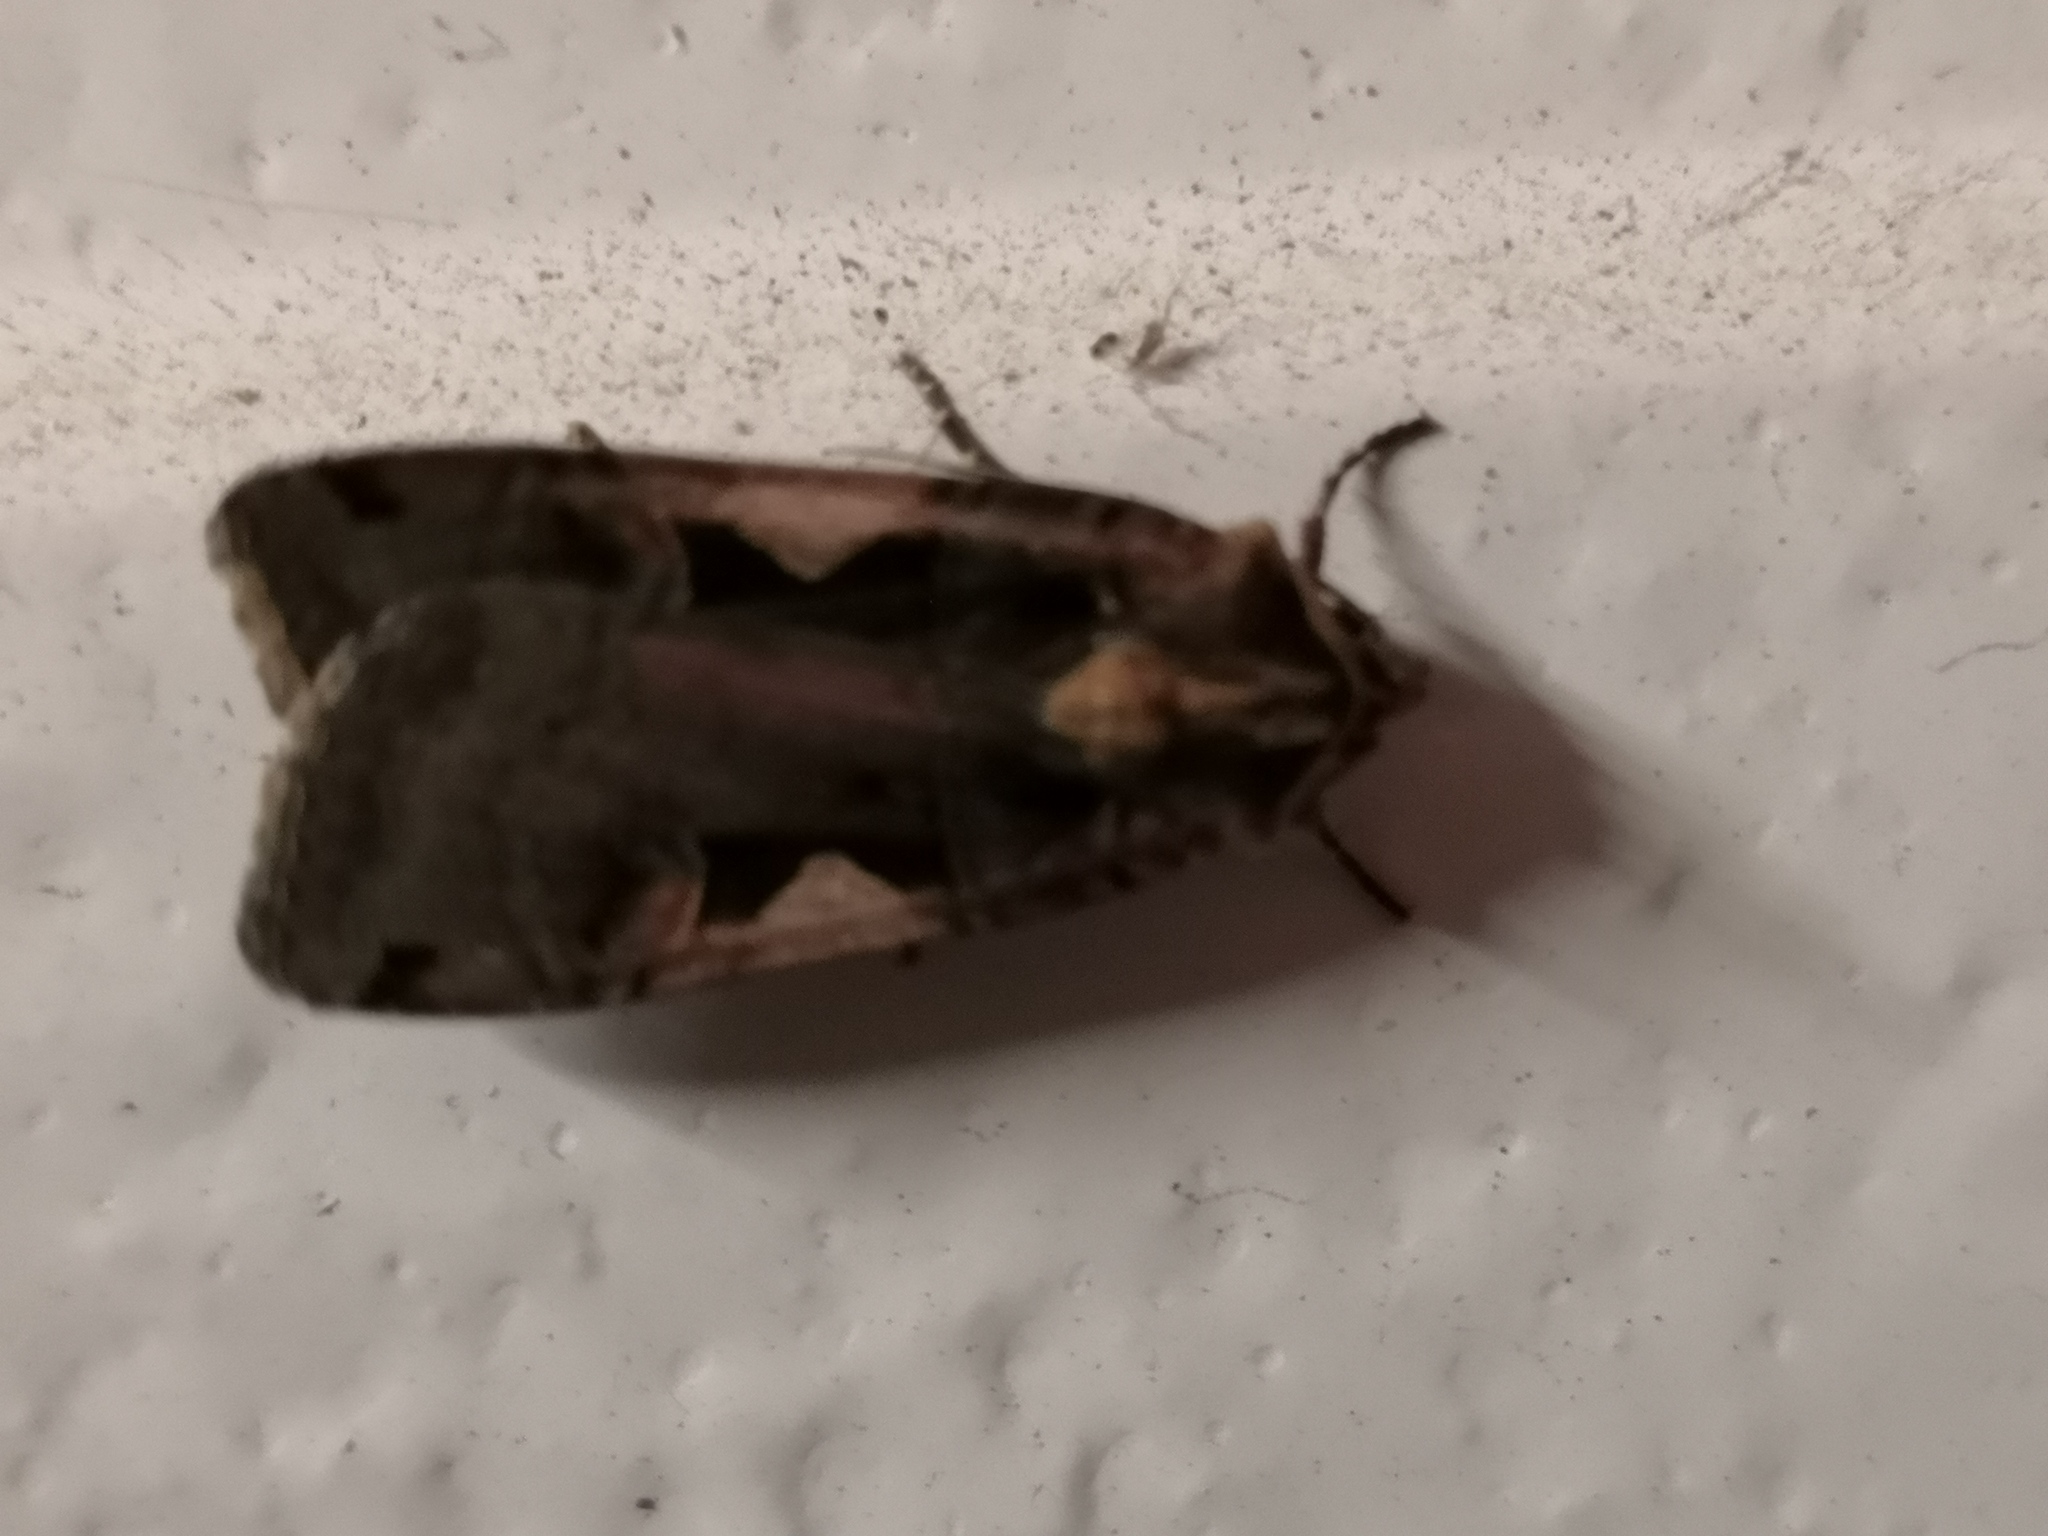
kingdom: Animalia
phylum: Arthropoda
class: Insecta
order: Lepidoptera
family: Noctuidae
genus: Xestia
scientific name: Xestia c-nigrum
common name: Setaceous hebrew character
